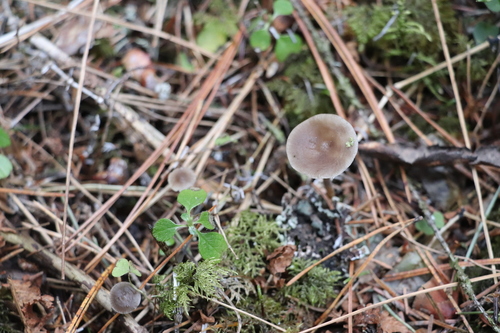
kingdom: Fungi
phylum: Basidiomycota
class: Agaricomycetes
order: Agaricales
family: Physalacriaceae
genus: Strobilurus
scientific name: Strobilurus esculentus
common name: Sprucecone cap
